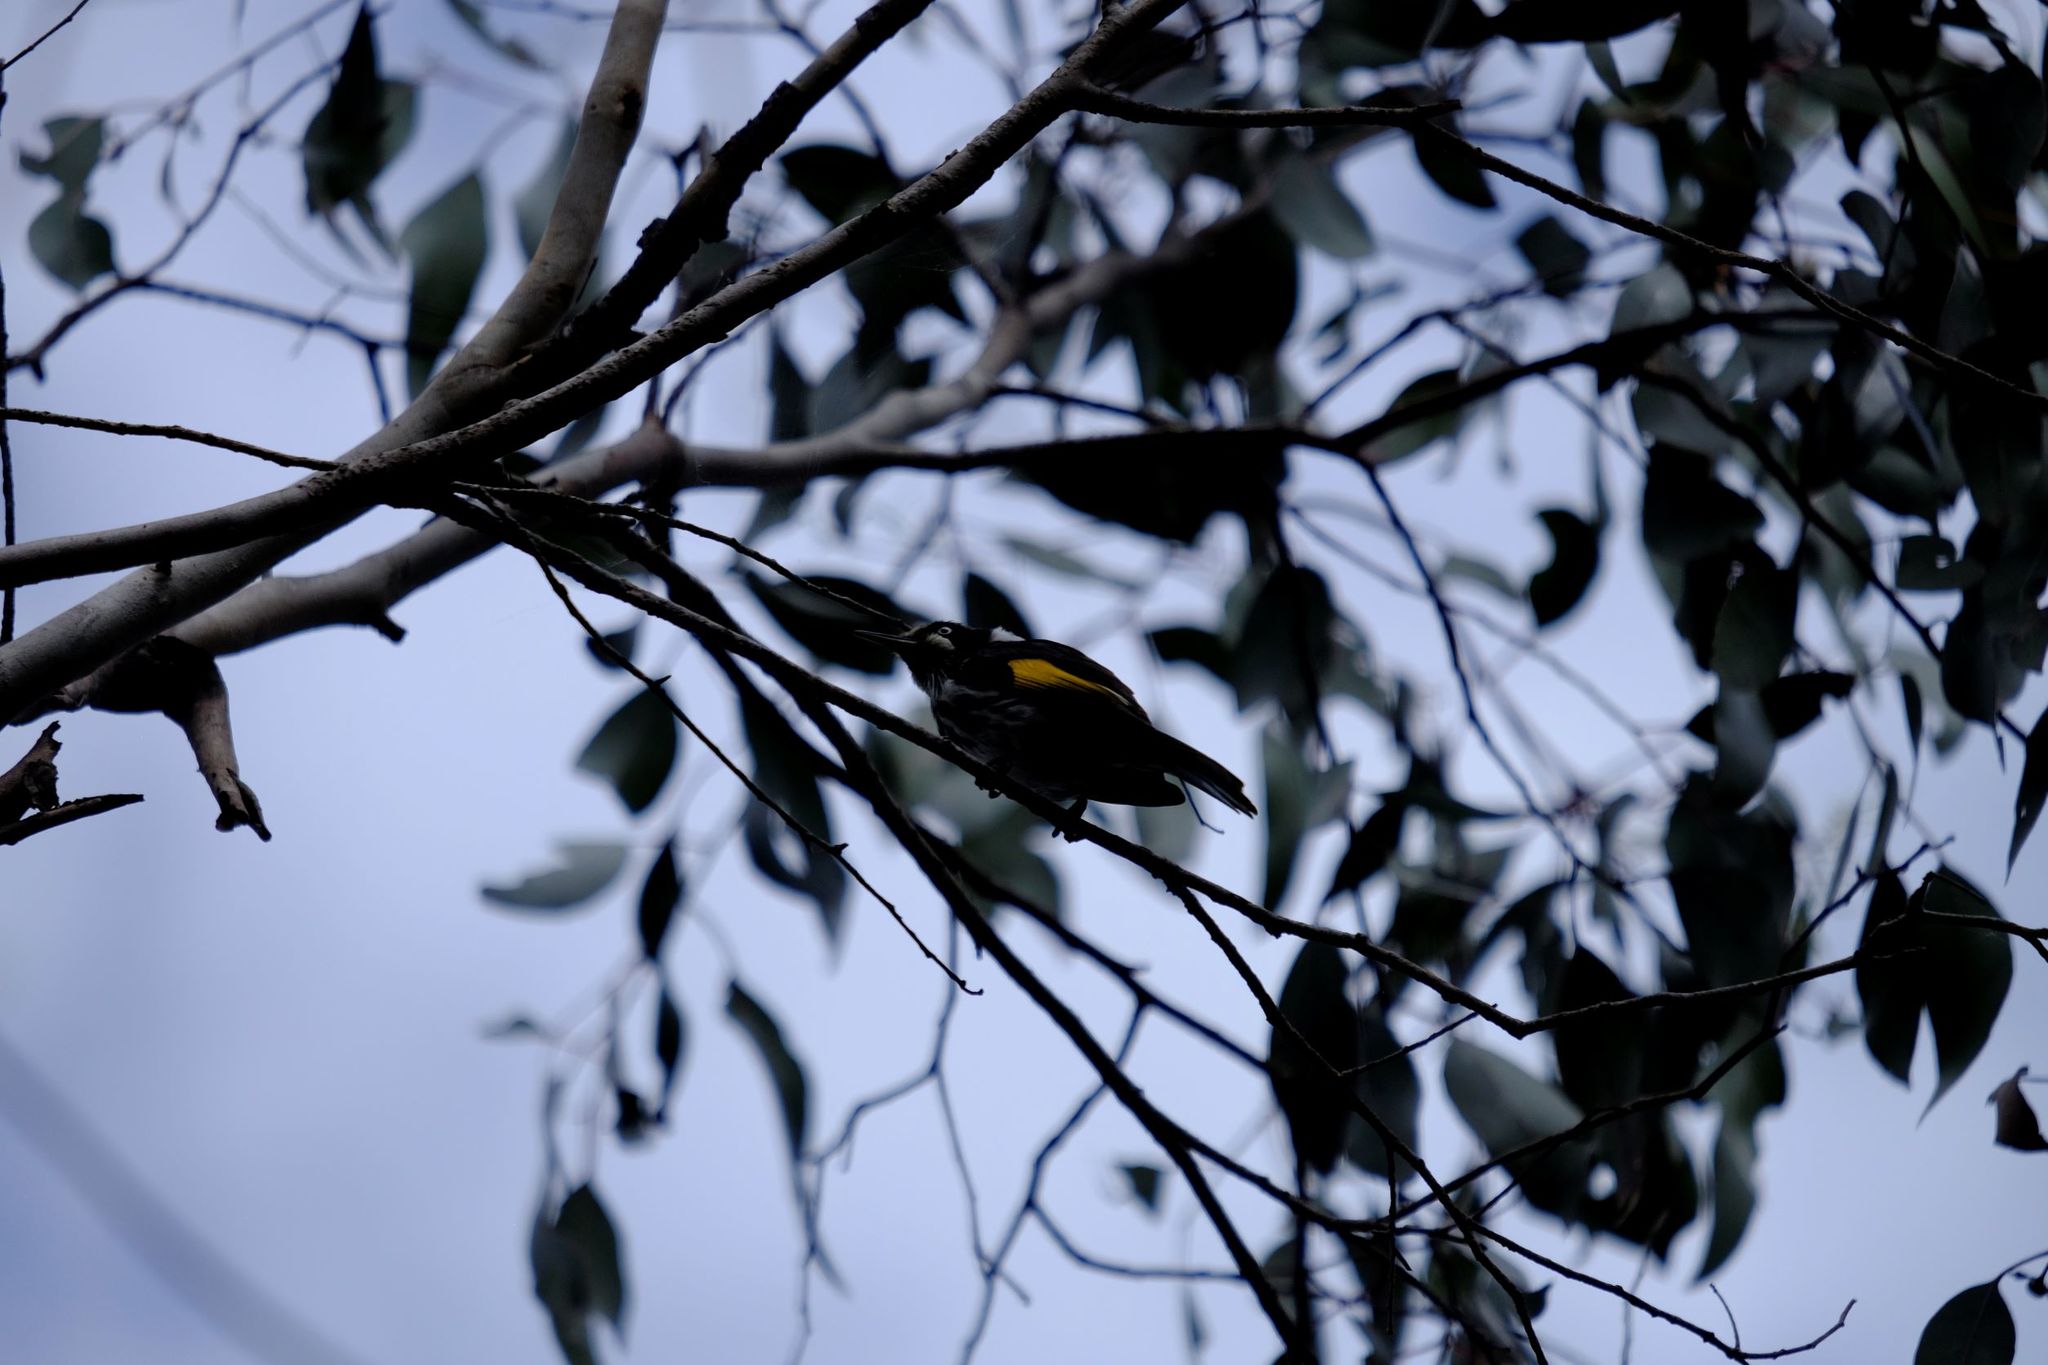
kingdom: Animalia
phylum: Chordata
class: Aves
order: Passeriformes
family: Meliphagidae
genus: Phylidonyris
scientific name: Phylidonyris novaehollandiae
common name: New holland honeyeater
